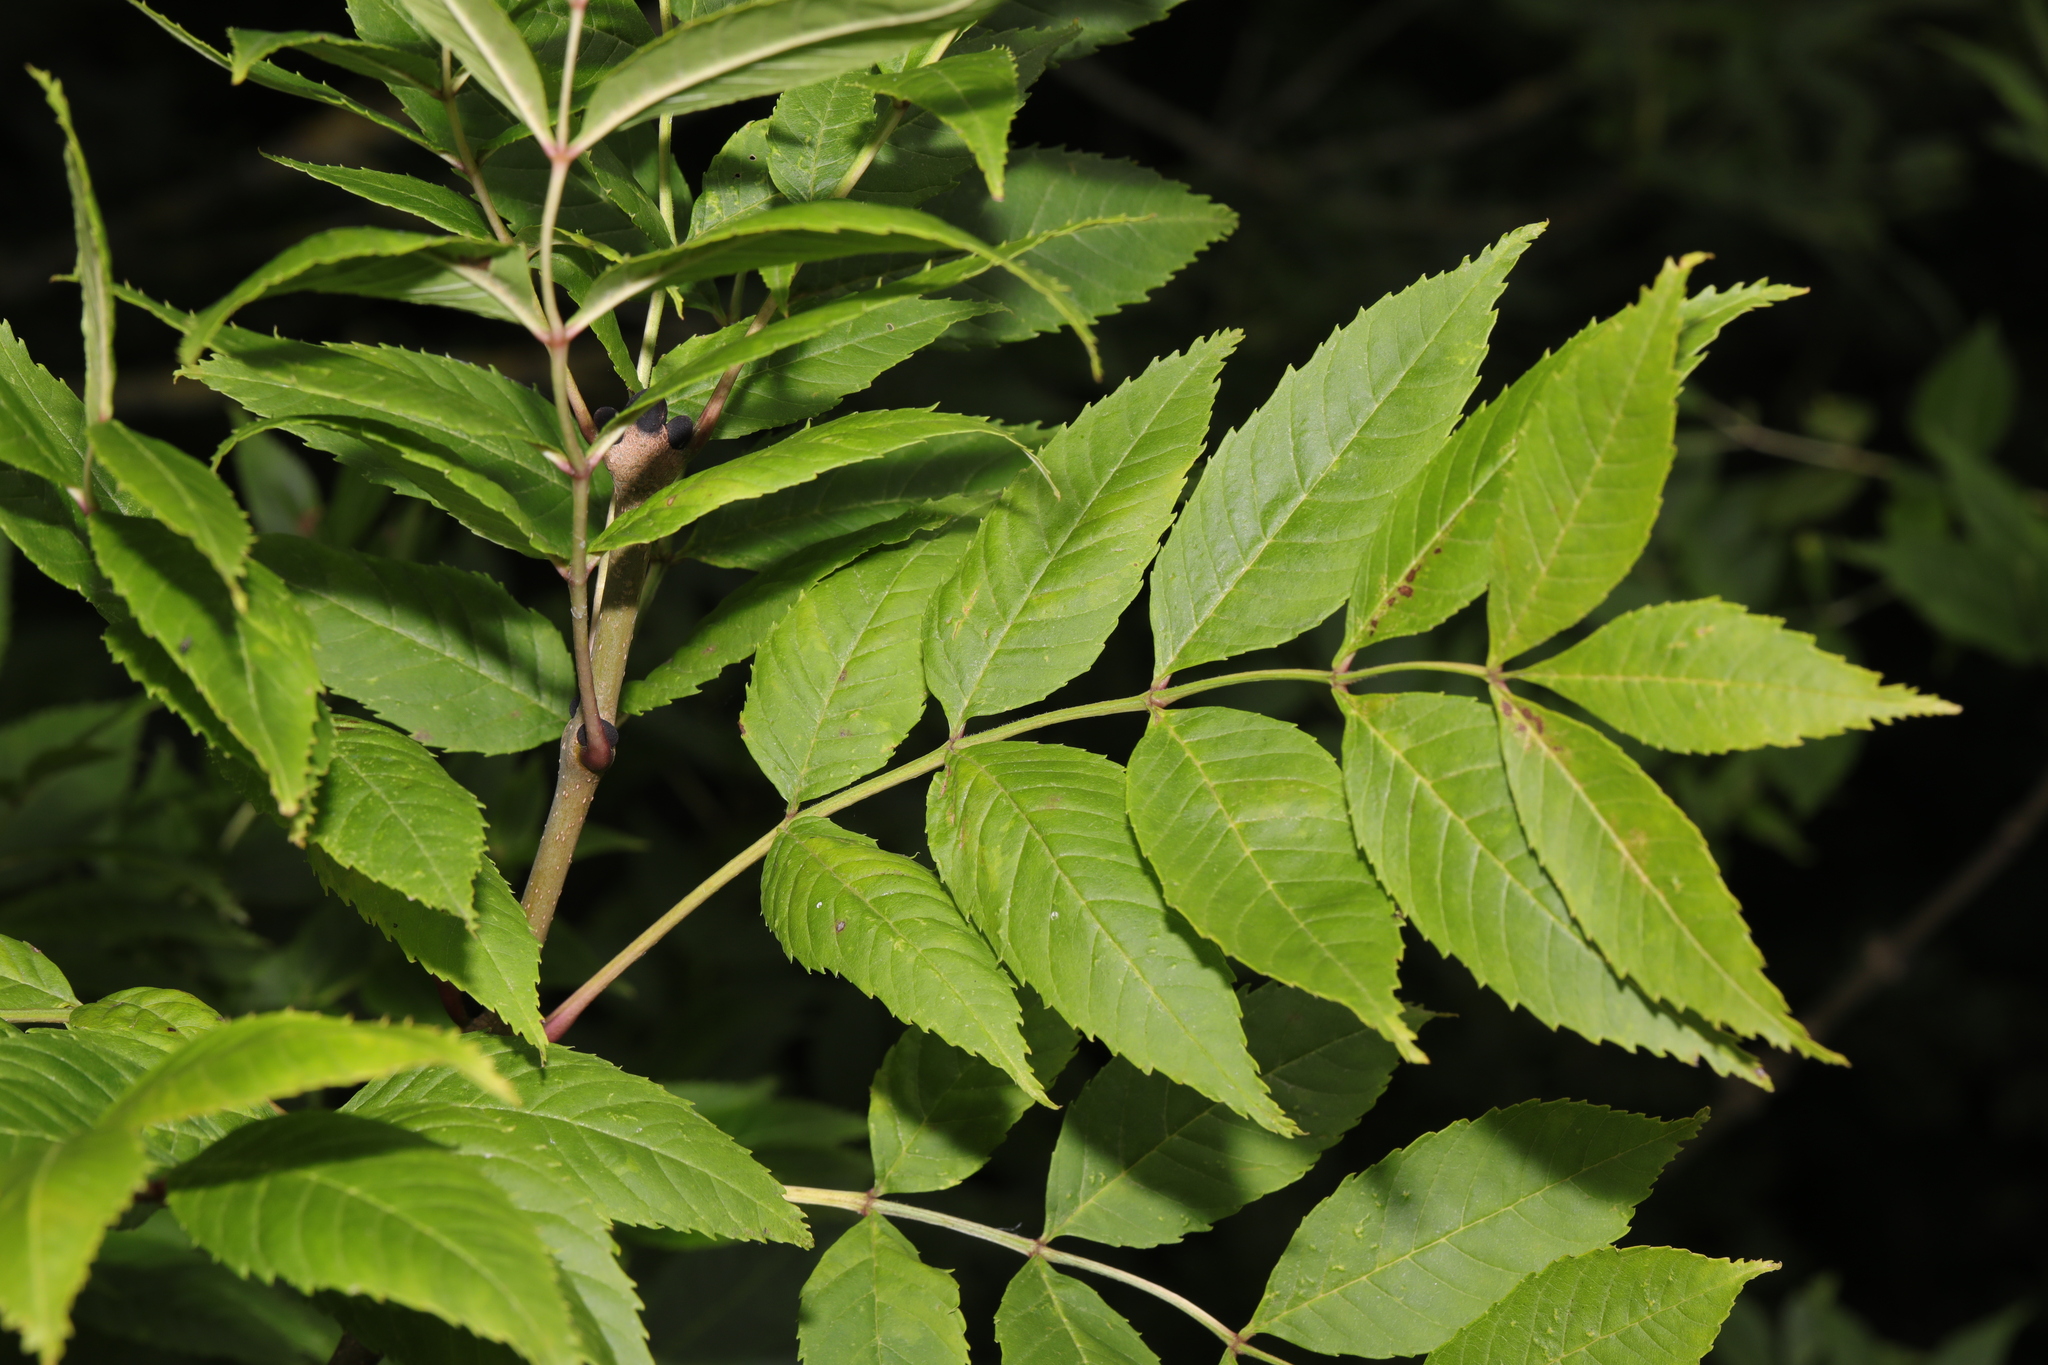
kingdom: Plantae
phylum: Tracheophyta
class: Magnoliopsida
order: Lamiales
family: Oleaceae
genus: Fraxinus
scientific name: Fraxinus excelsior
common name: European ash
